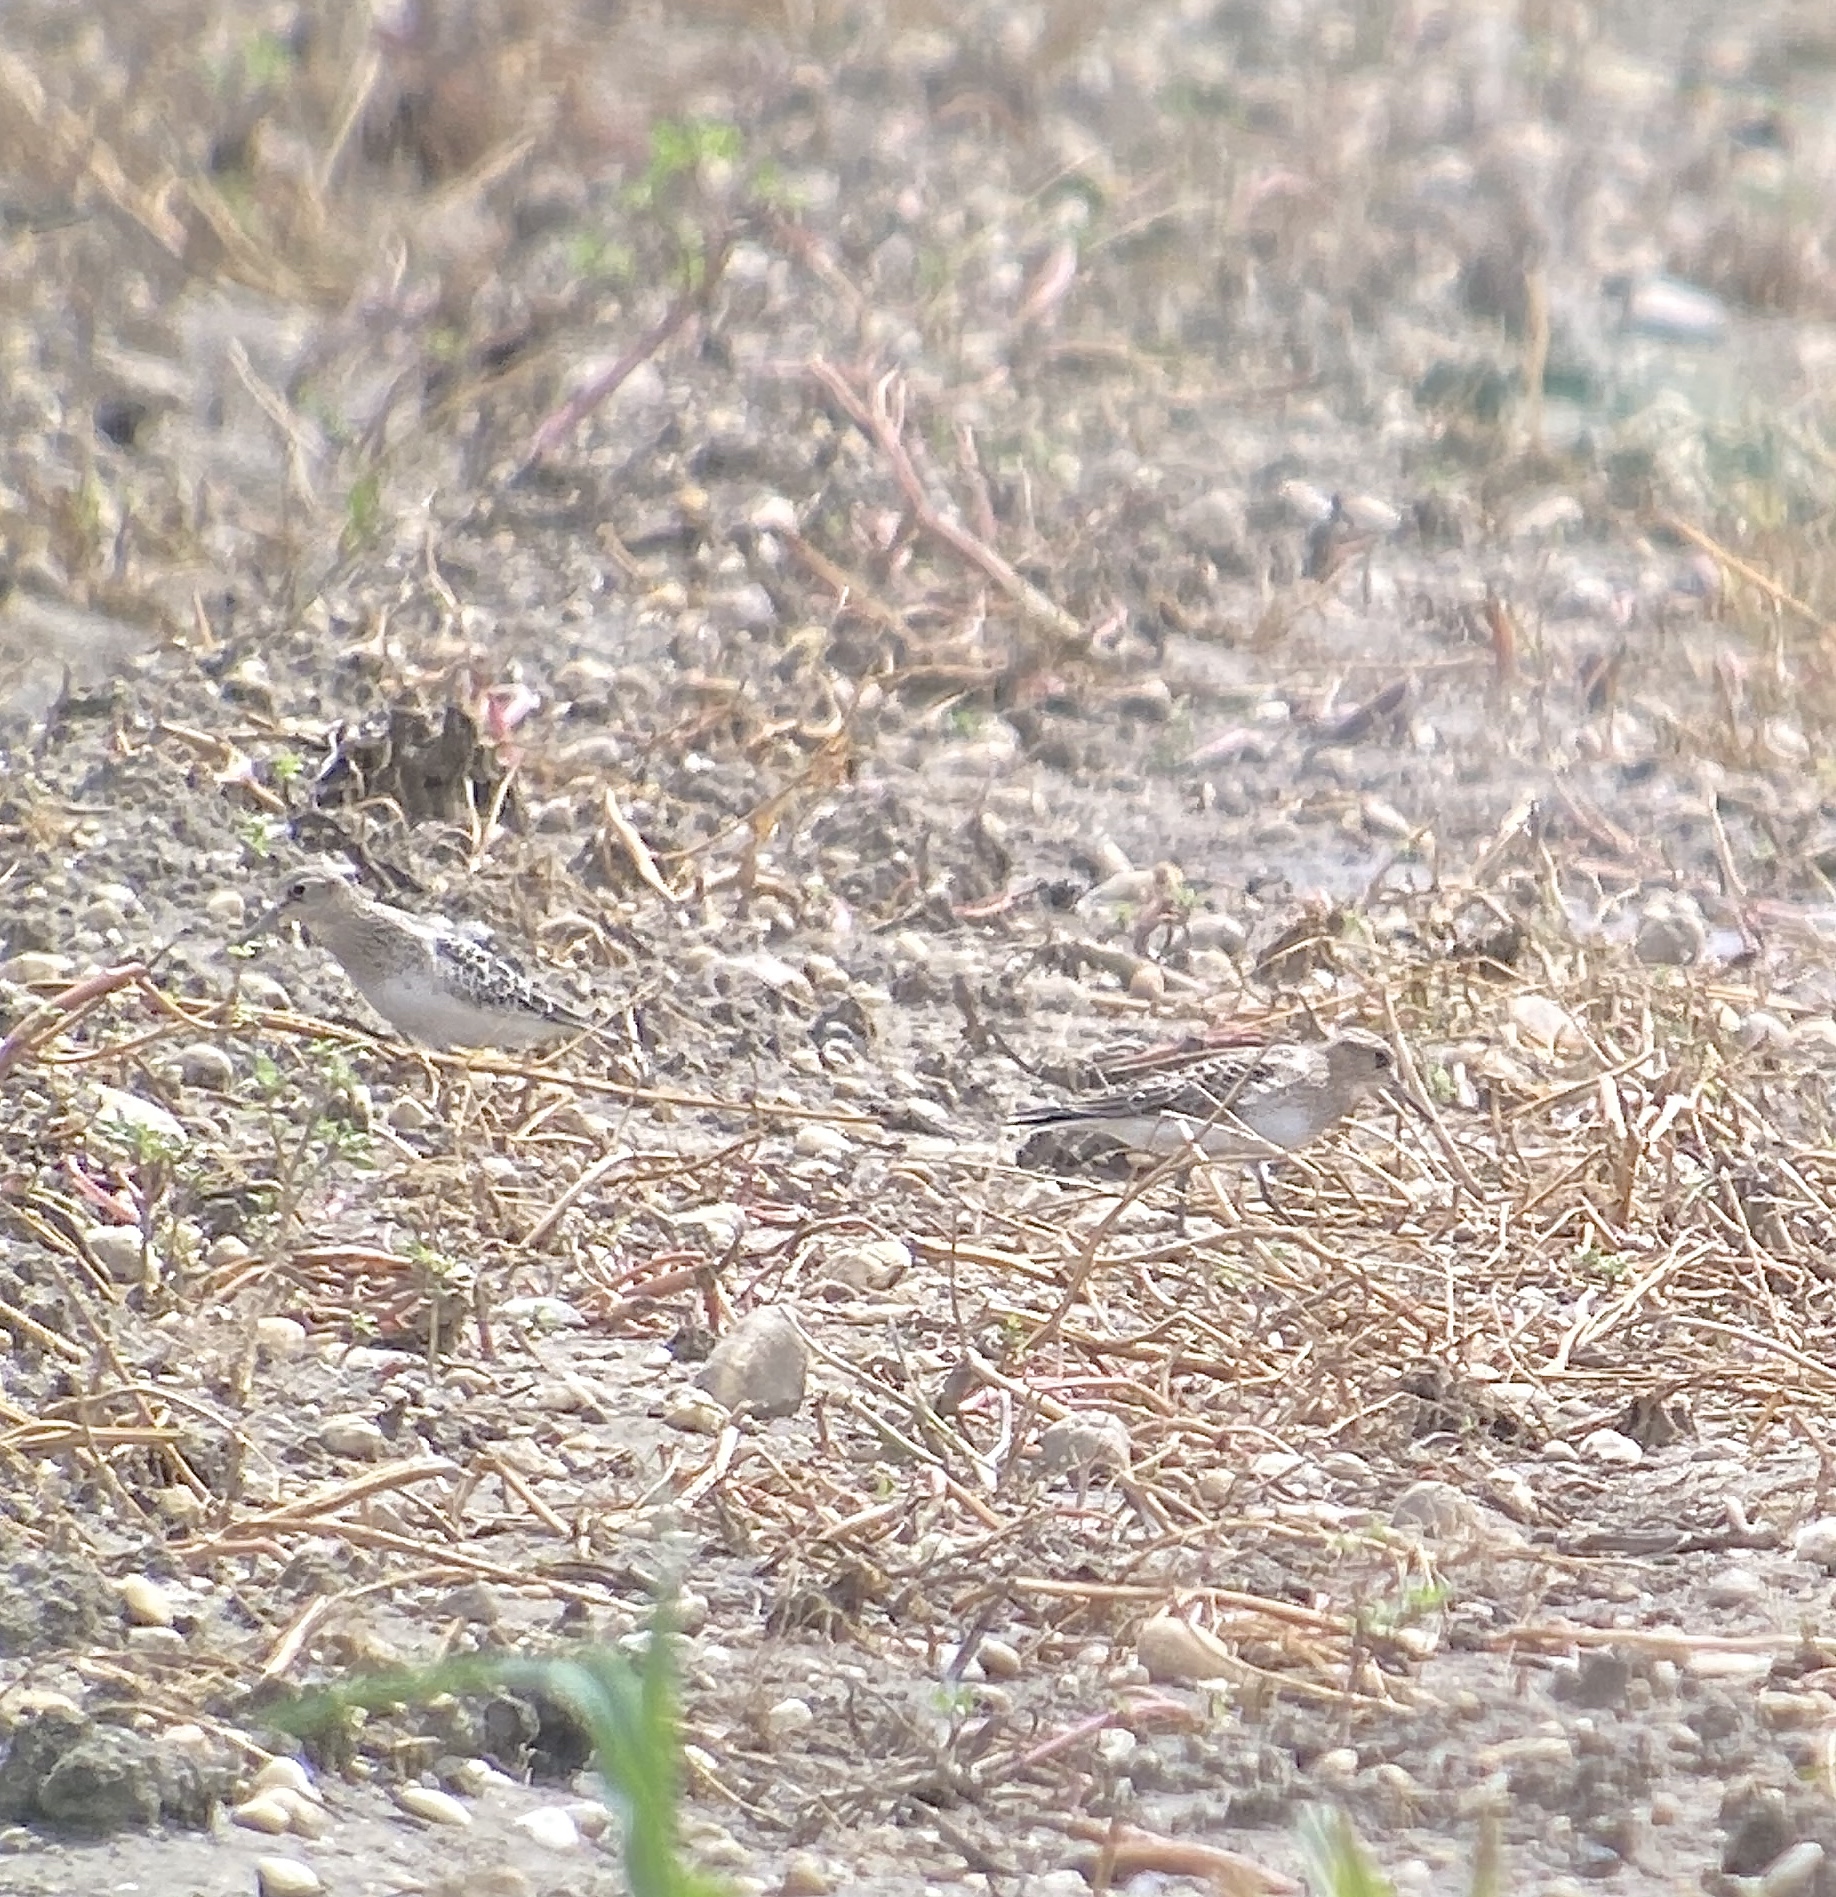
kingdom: Animalia
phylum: Chordata
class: Aves
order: Charadriiformes
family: Scolopacidae
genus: Calidris
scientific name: Calidris bairdii
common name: Baird's sandpiper
